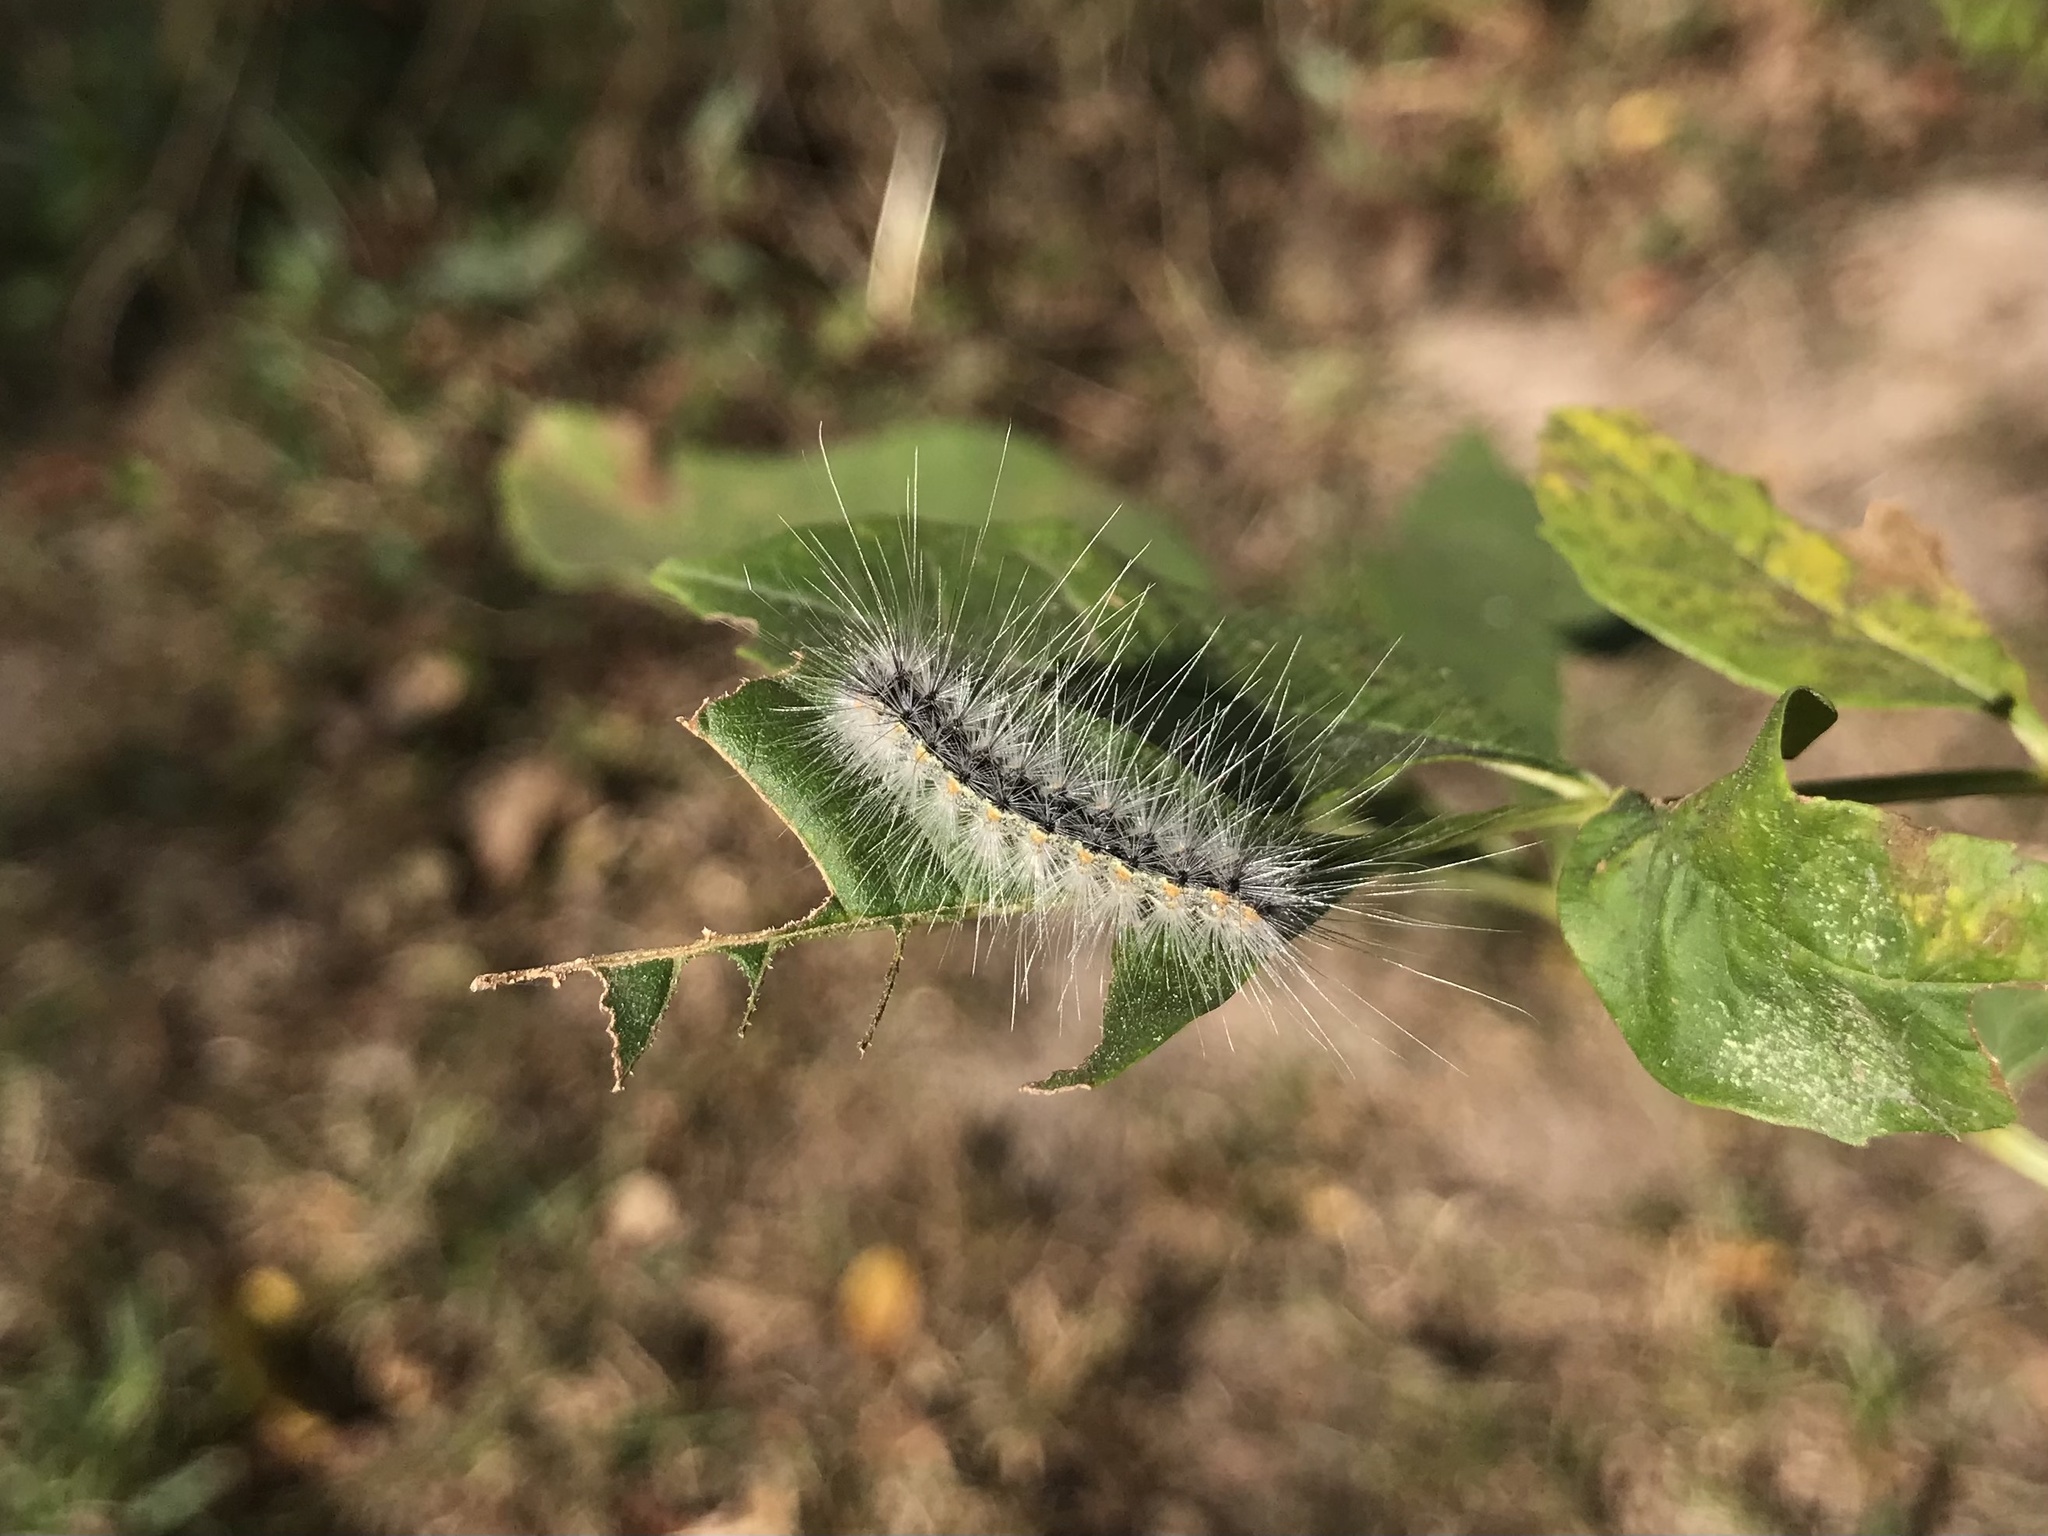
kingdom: Animalia
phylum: Arthropoda
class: Insecta
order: Lepidoptera
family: Erebidae
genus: Hyphantria
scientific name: Hyphantria cunea
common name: American white moth
